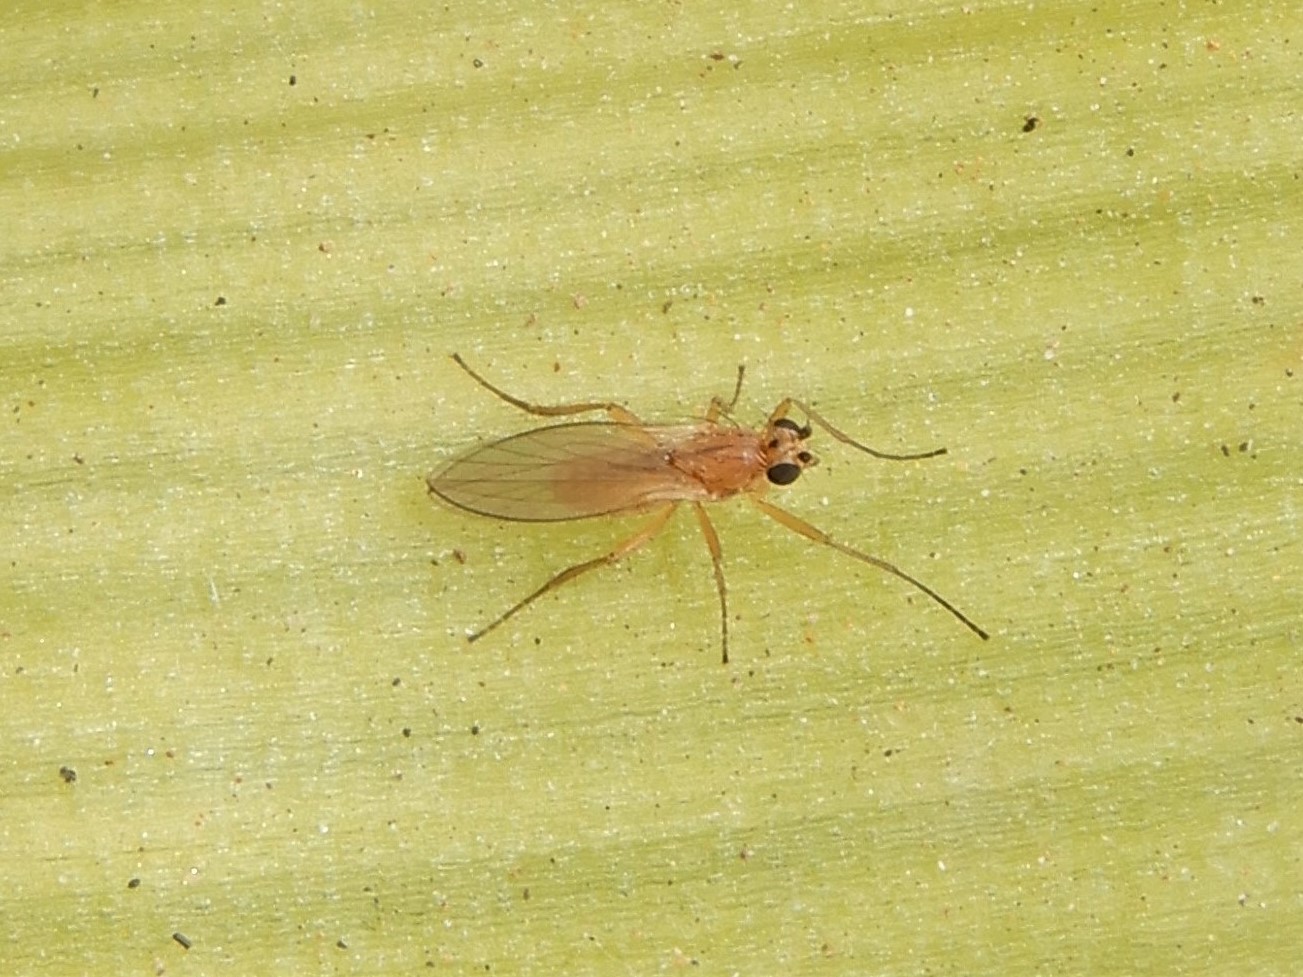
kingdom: Animalia
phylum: Arthropoda
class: Insecta
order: Diptera
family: Lonchopteridae
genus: Lonchoptera
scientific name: Lonchoptera bifurcata
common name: Spear-winged fly
